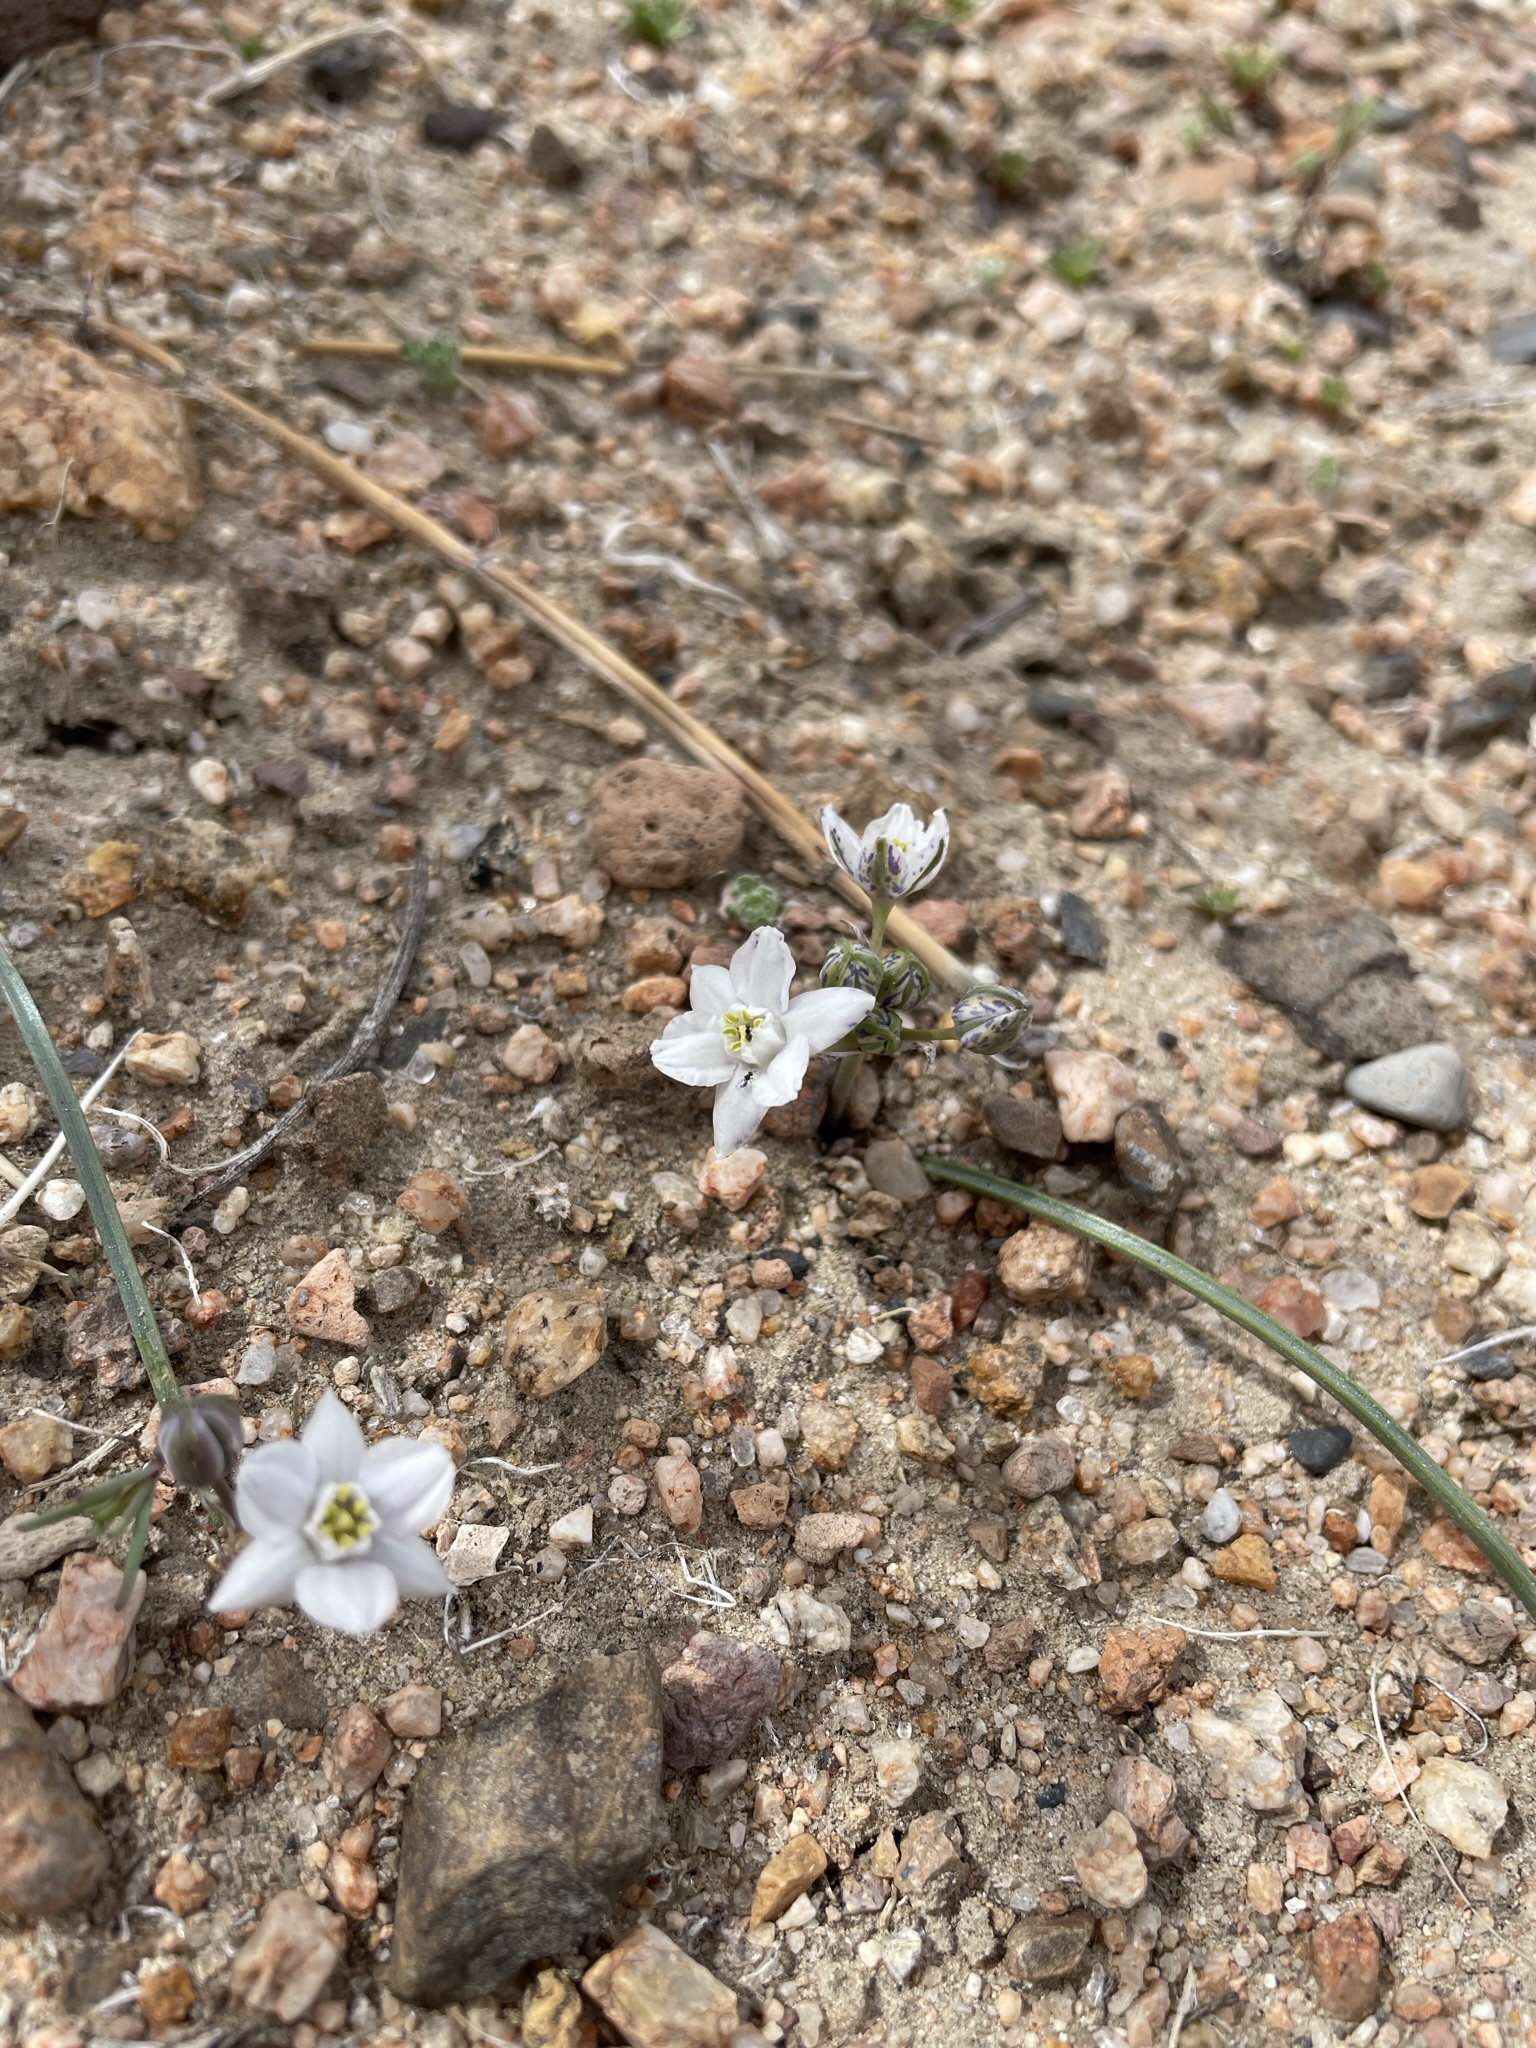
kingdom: Plantae
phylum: Tracheophyta
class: Liliopsida
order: Asparagales
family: Asparagaceae
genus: Muilla
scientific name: Muilla coronata
